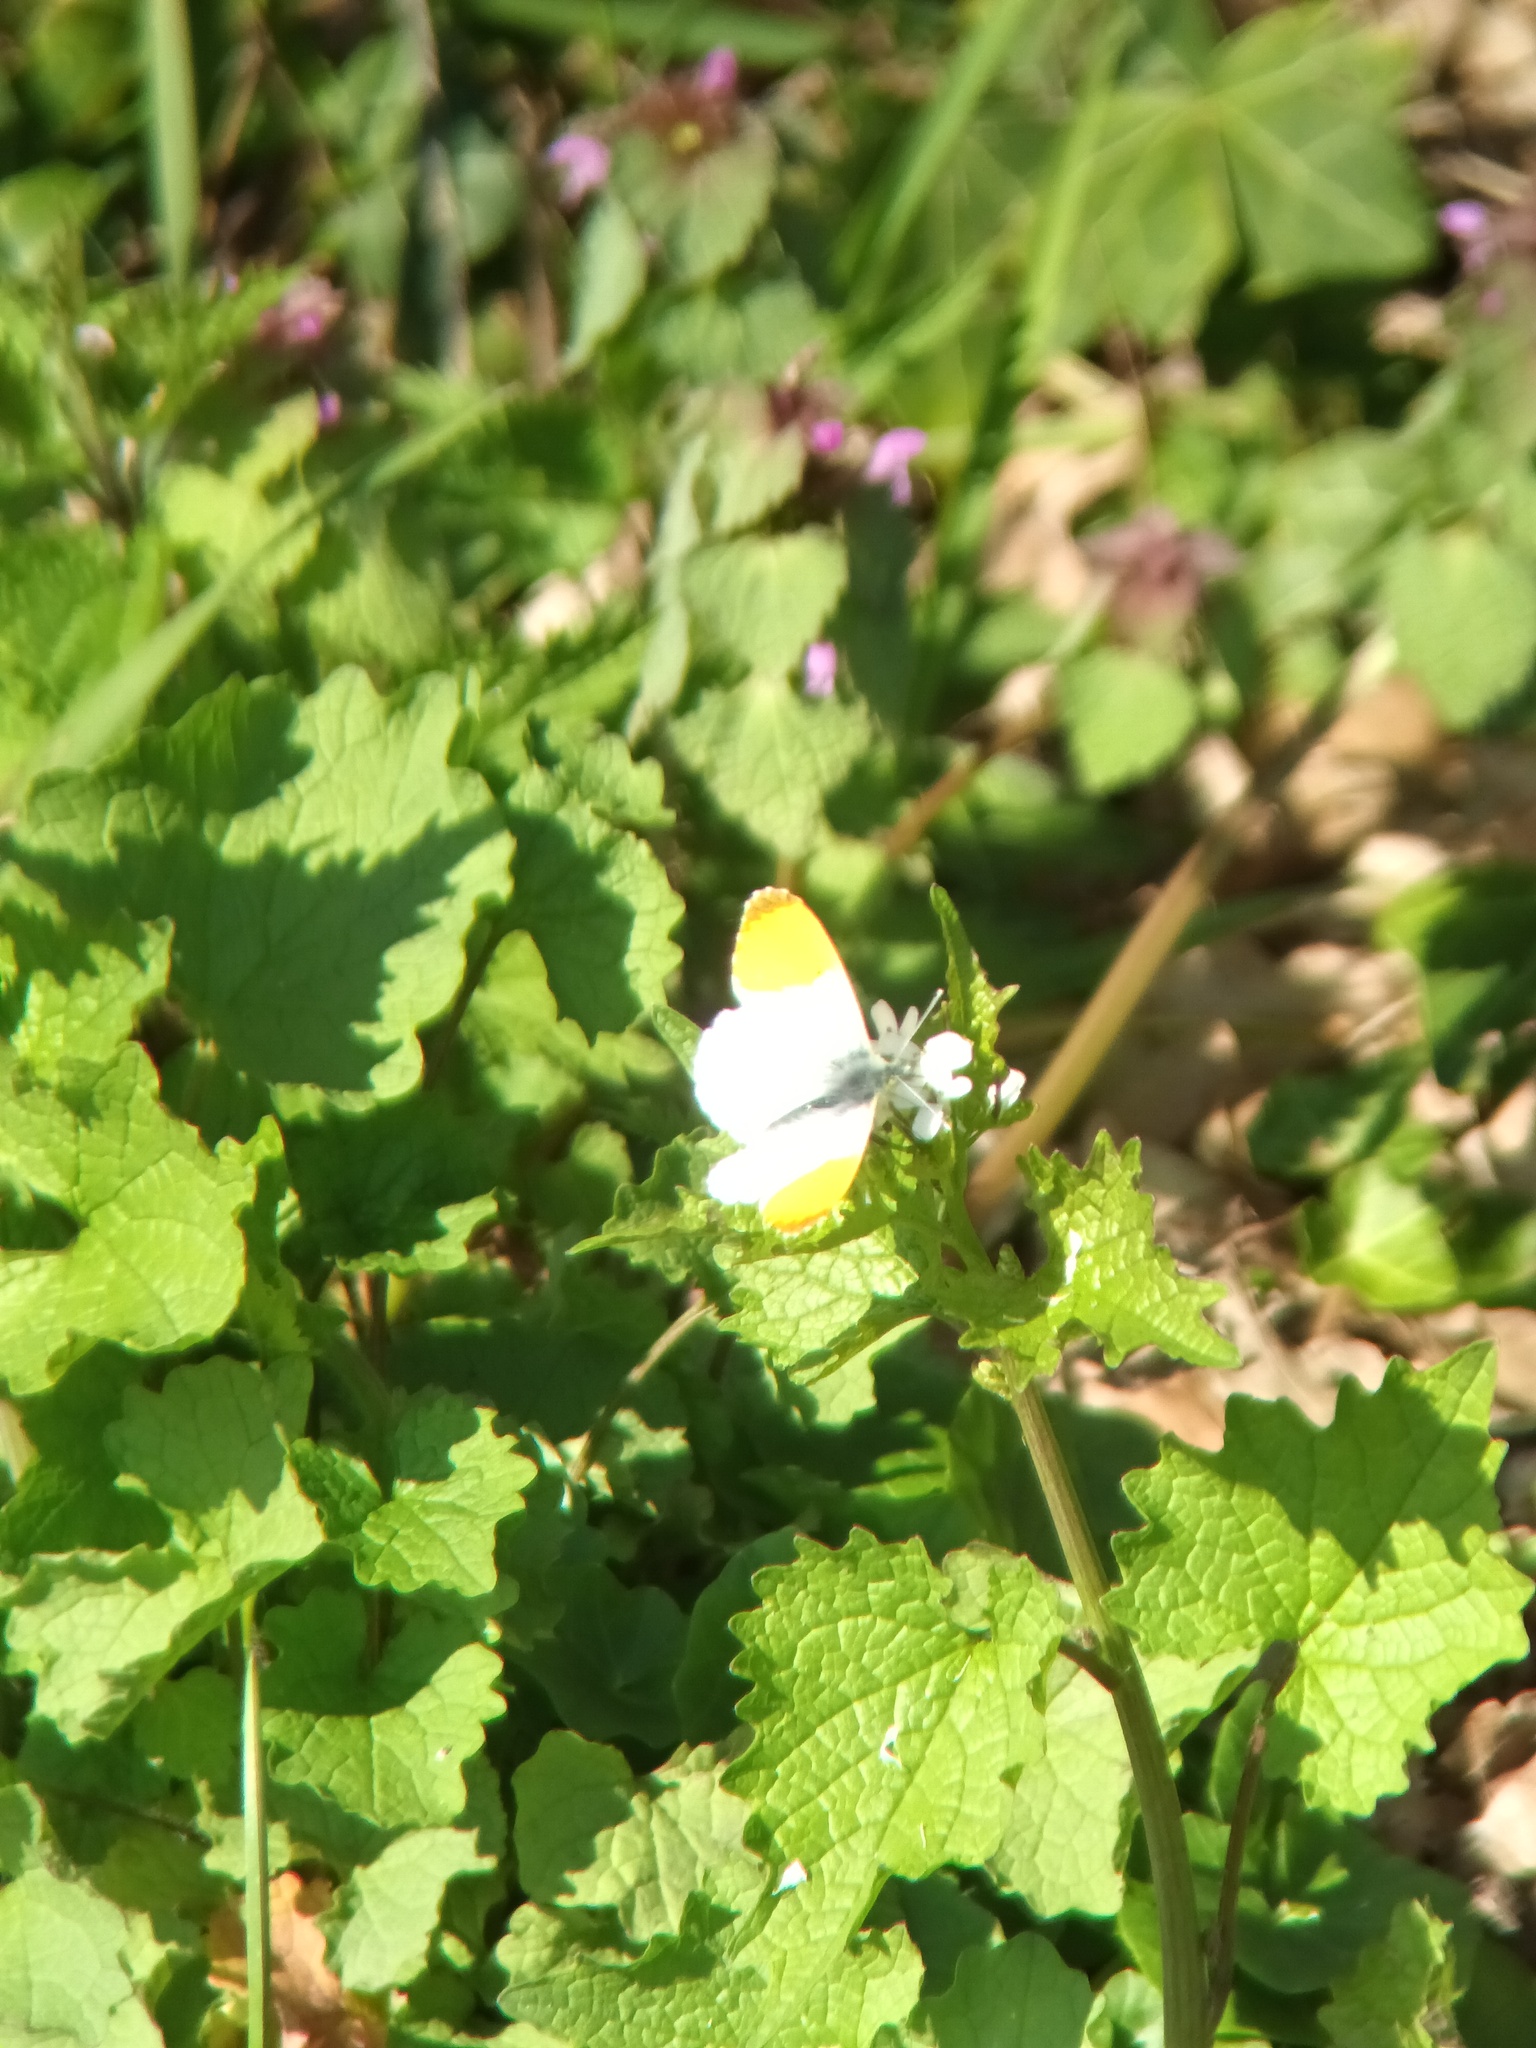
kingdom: Animalia
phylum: Arthropoda
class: Insecta
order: Lepidoptera
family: Pieridae
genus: Anthocharis
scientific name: Anthocharis cardamines
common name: Orange-tip
